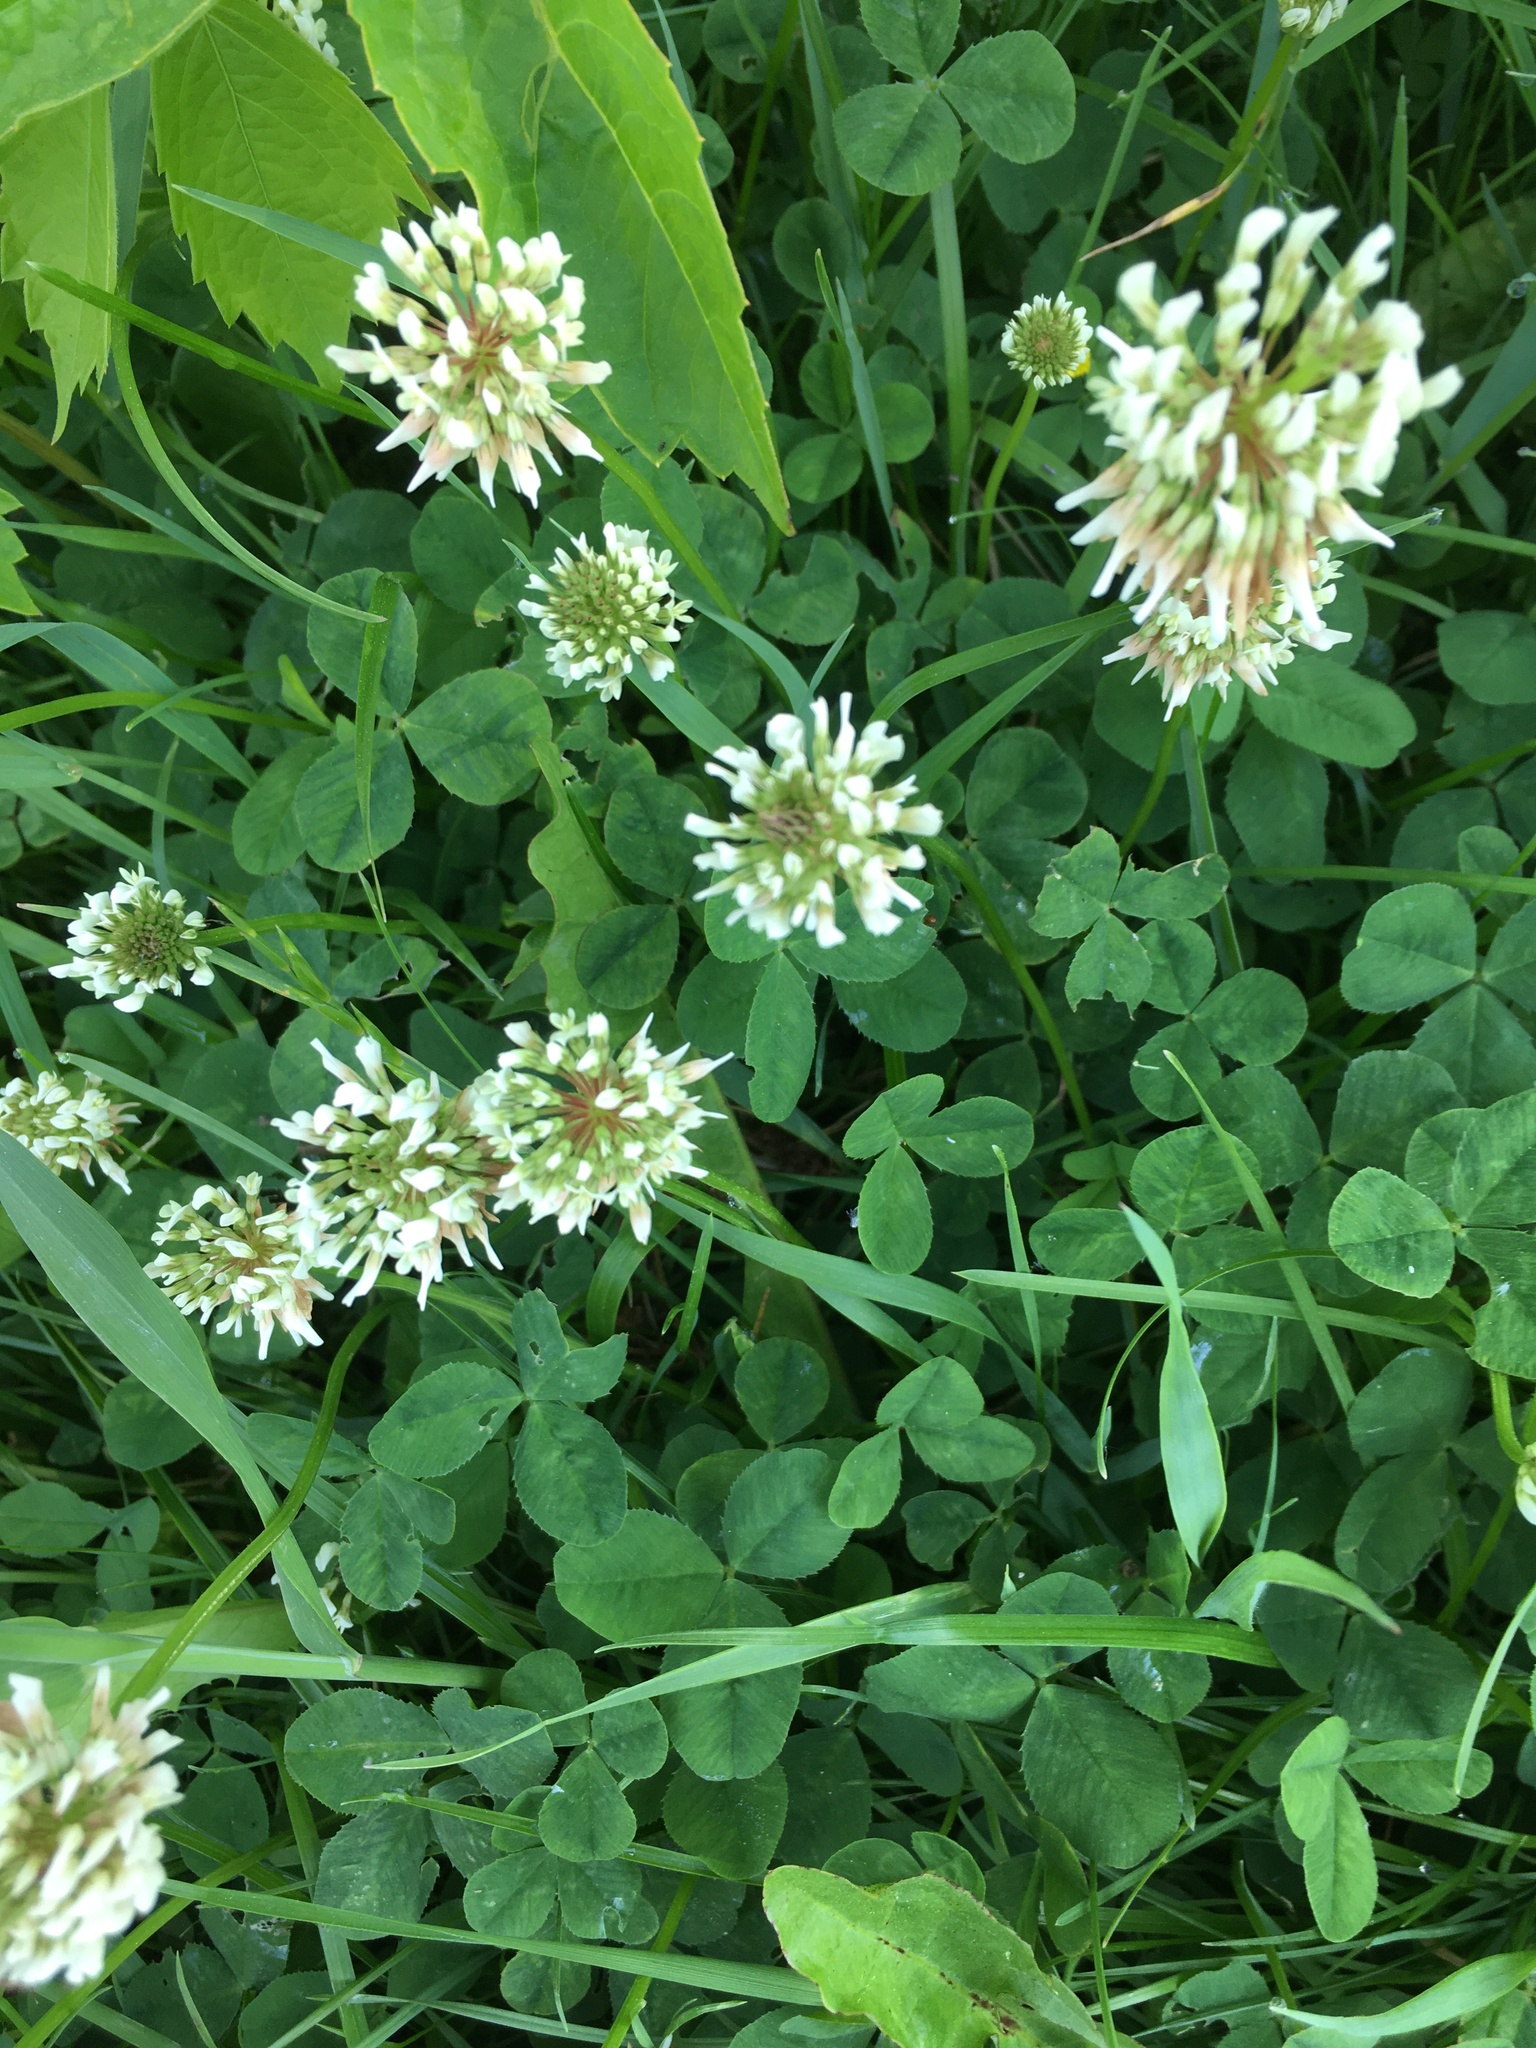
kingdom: Plantae
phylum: Tracheophyta
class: Magnoliopsida
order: Fabales
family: Fabaceae
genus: Trifolium
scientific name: Trifolium repens
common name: White clover
